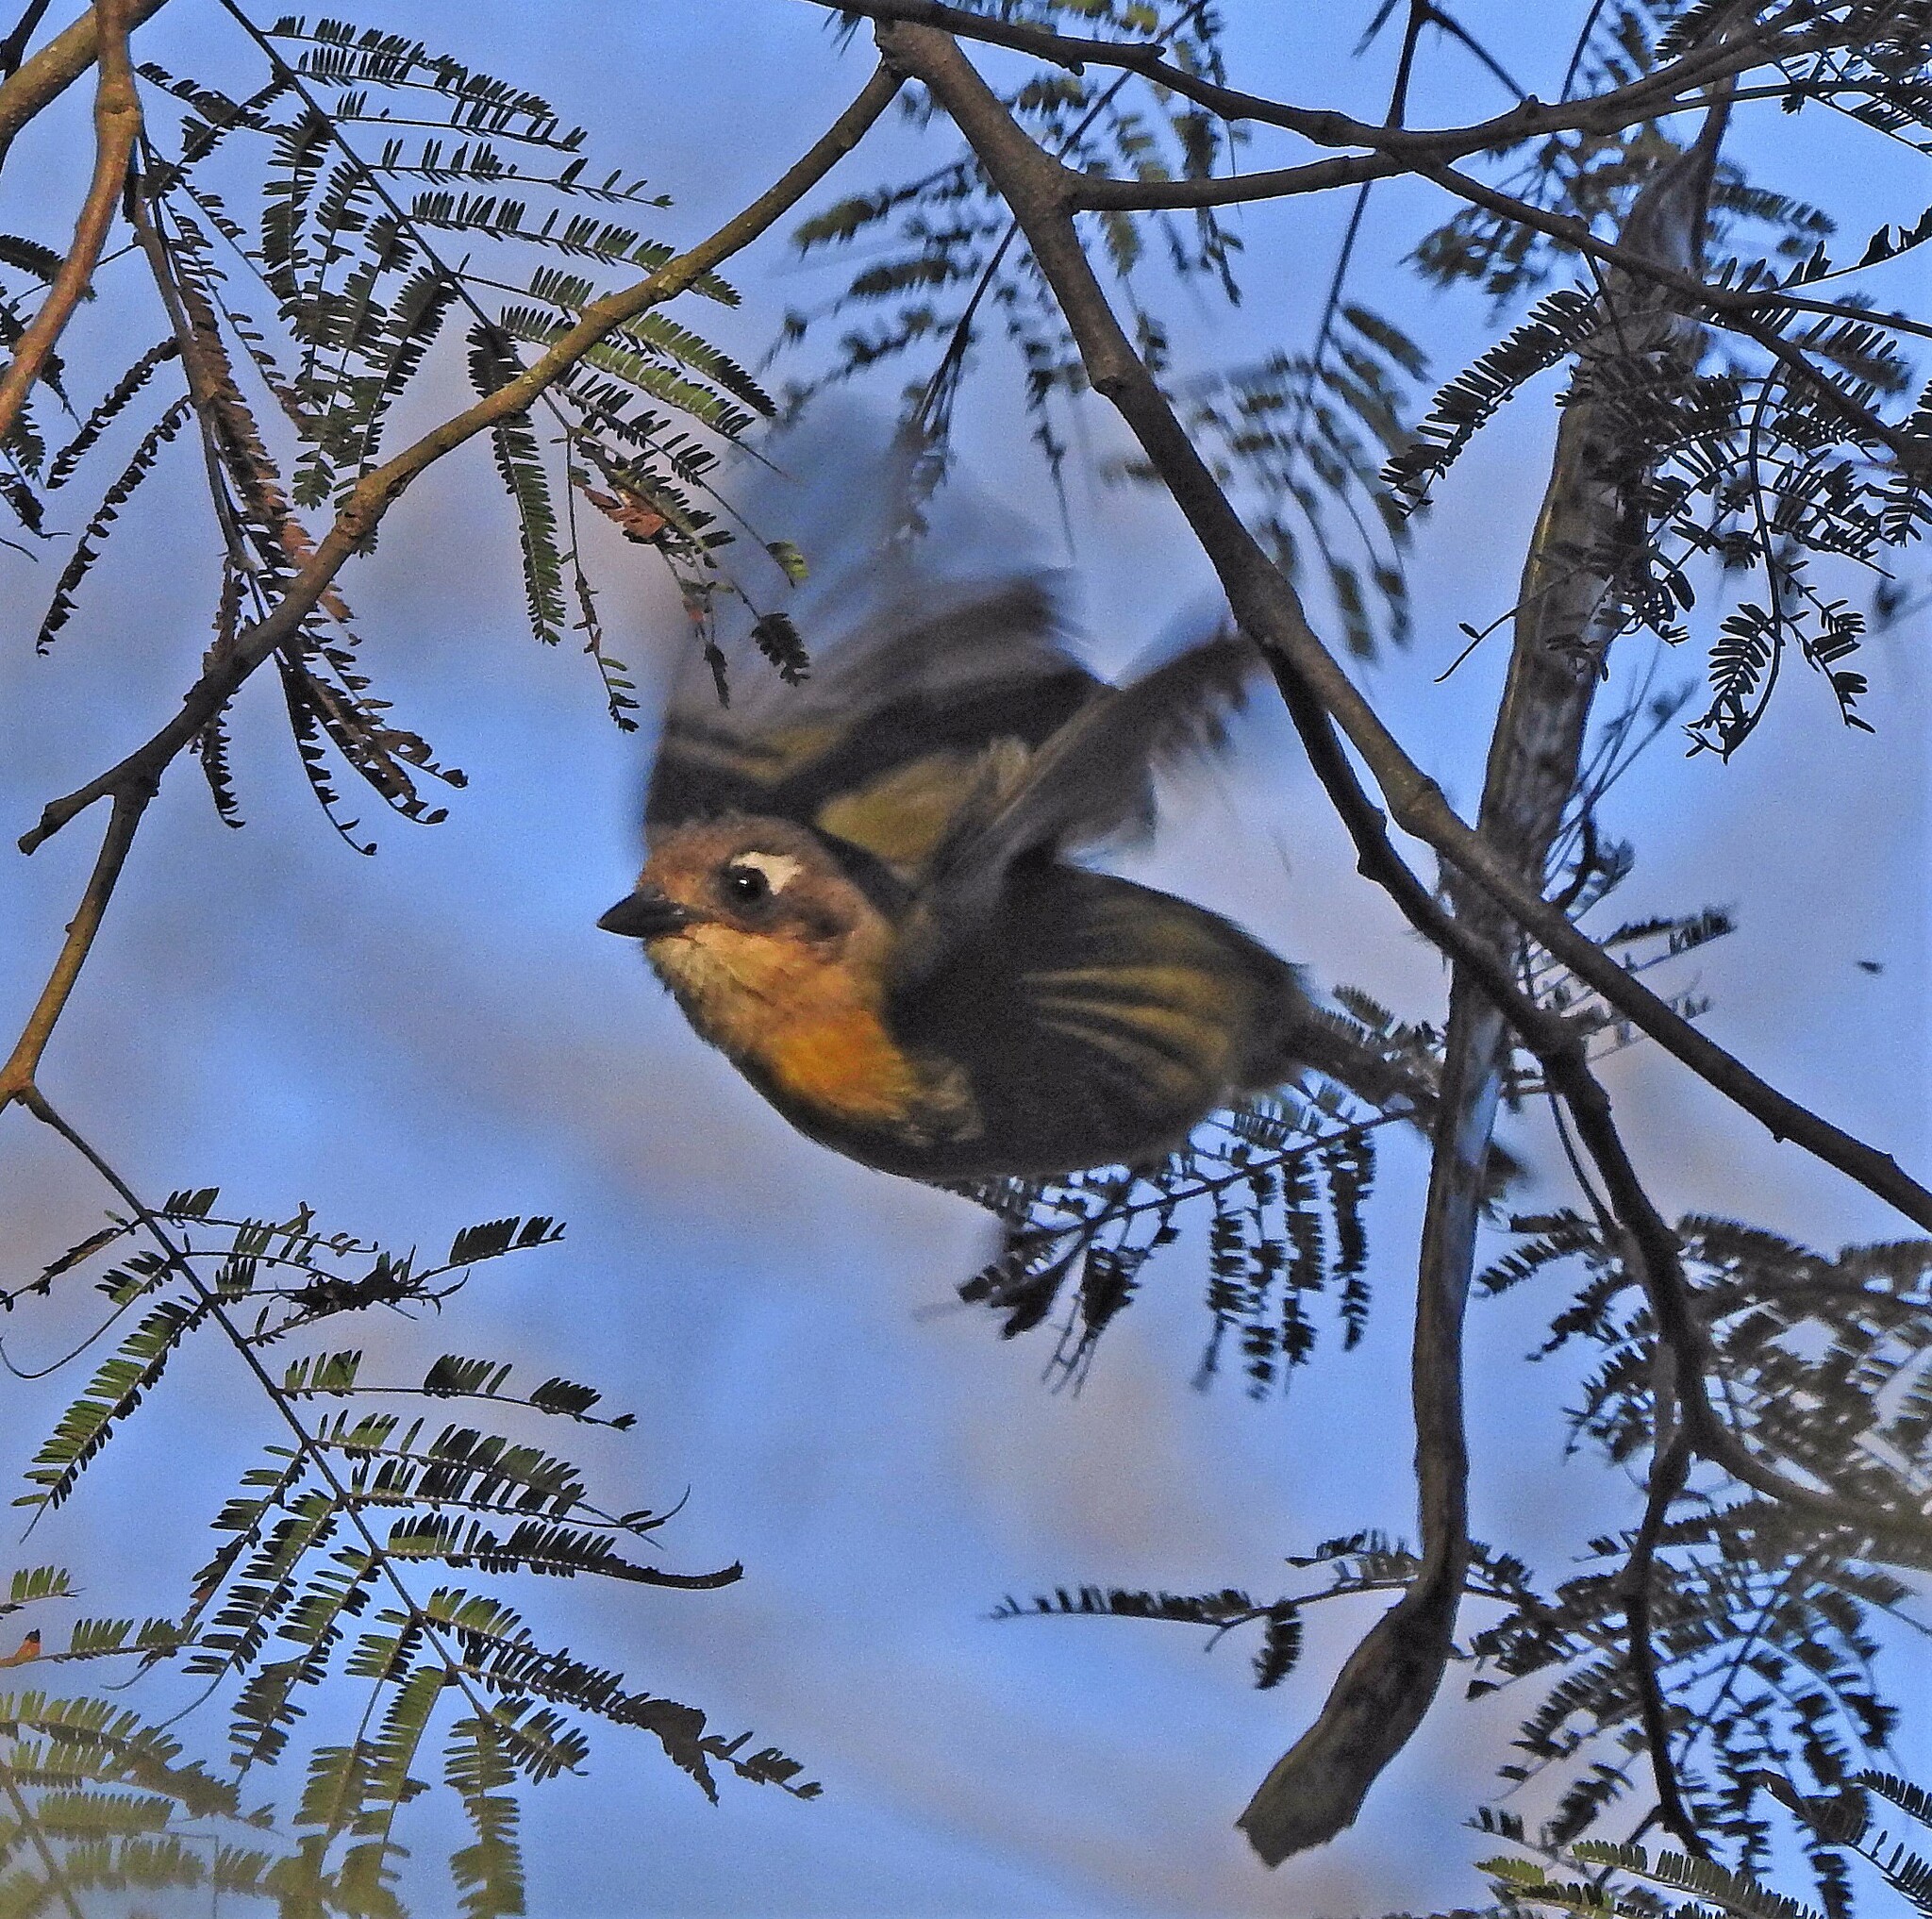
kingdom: Animalia
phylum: Chordata
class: Aves
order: Passeriformes
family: Passerellidae
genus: Chlorospingus
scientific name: Chlorospingus flavopectus
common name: Common chlorospingus
